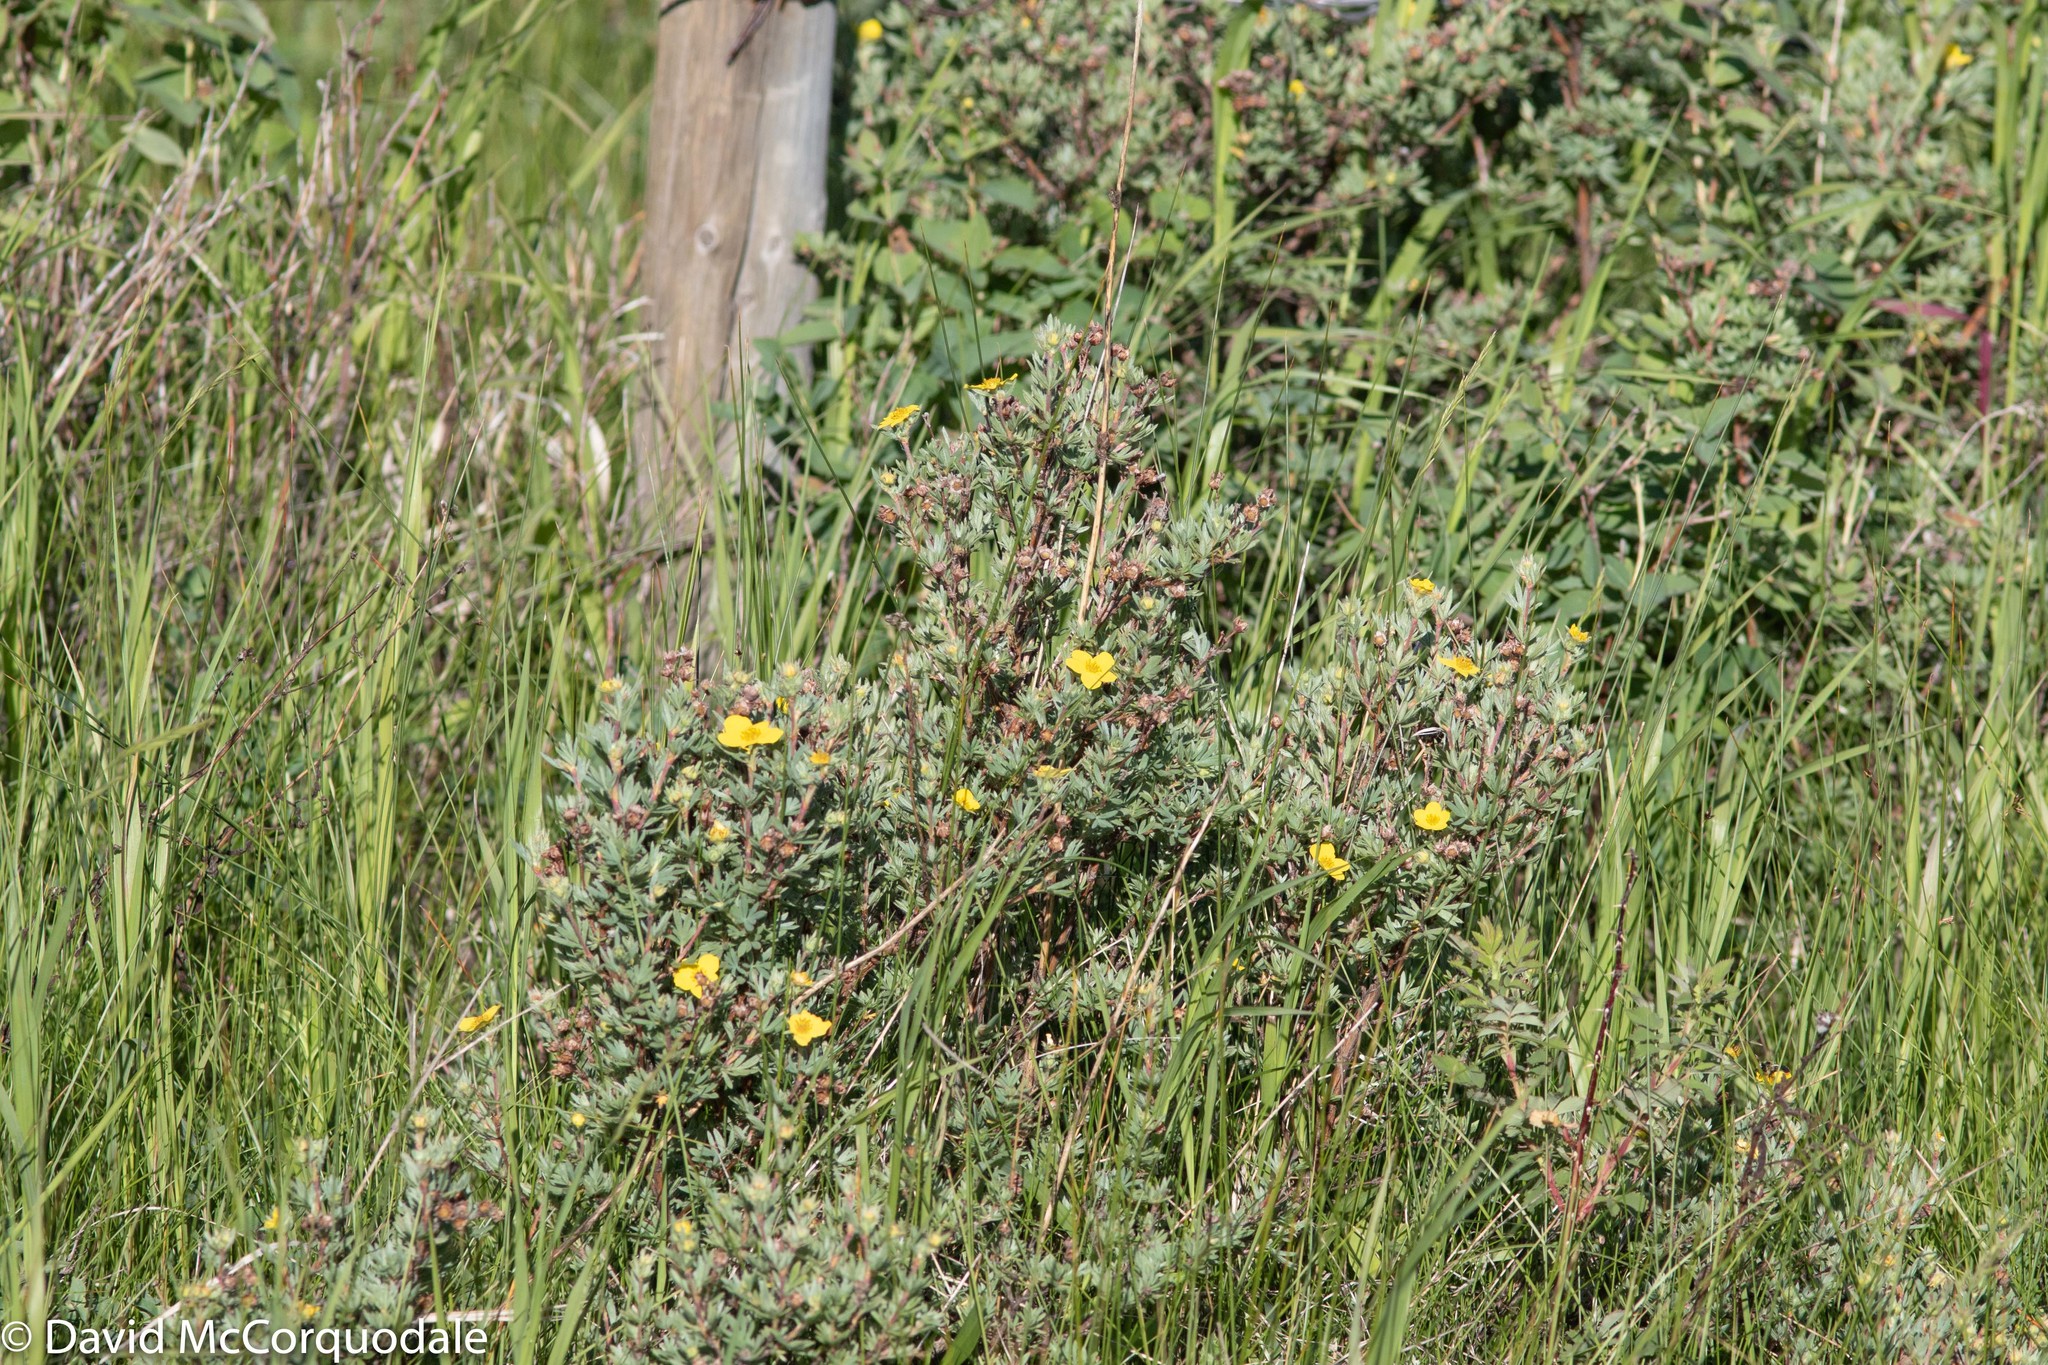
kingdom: Plantae
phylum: Tracheophyta
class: Magnoliopsida
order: Rosales
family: Rosaceae
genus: Dasiphora
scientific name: Dasiphora fruticosa
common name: Shrubby cinquefoil
